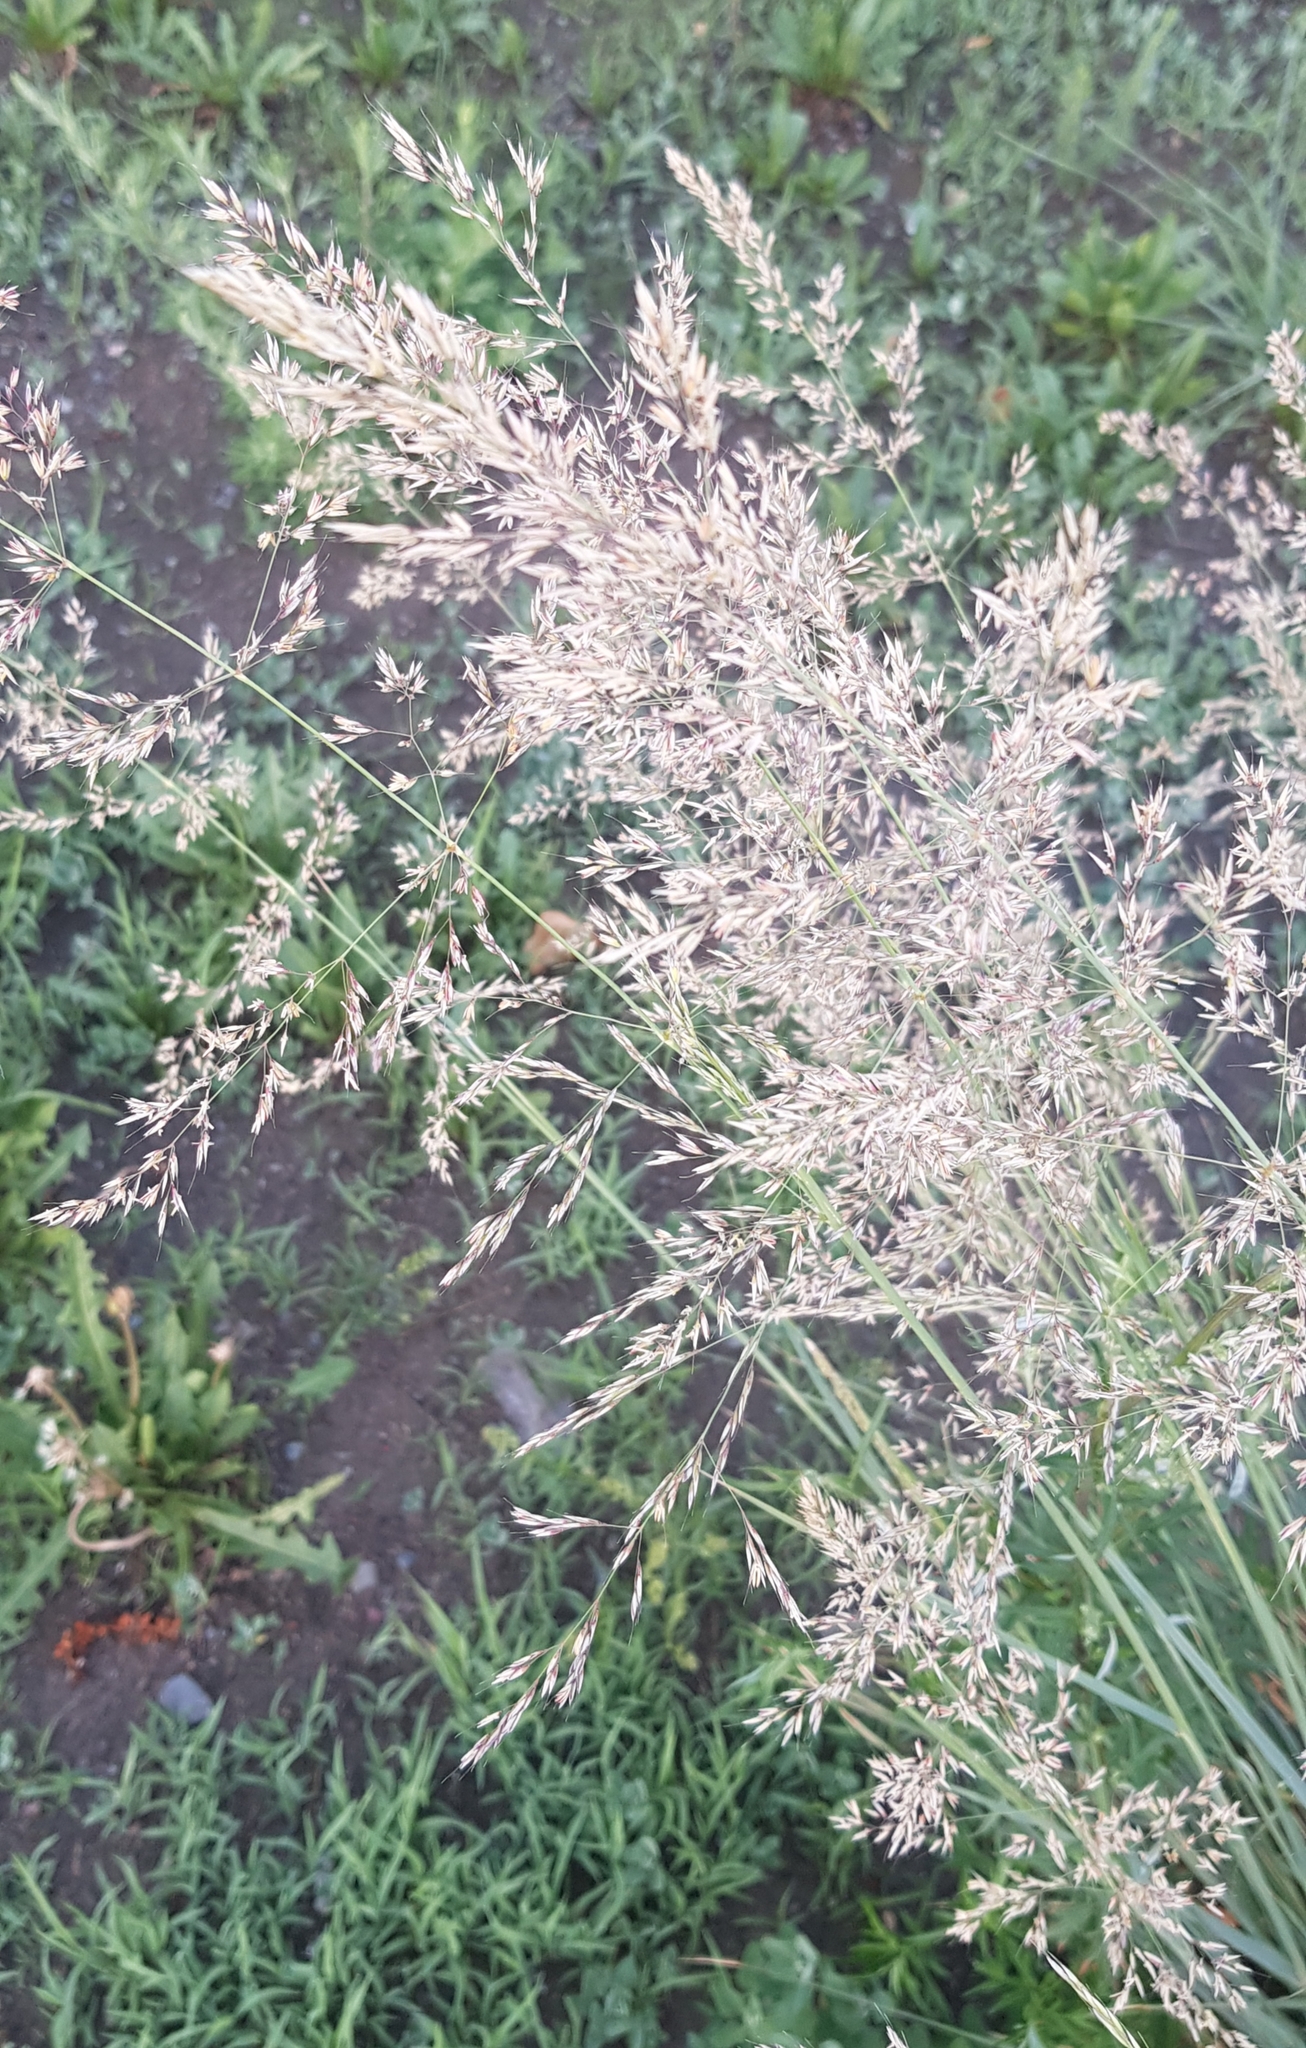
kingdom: Plantae
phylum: Tracheophyta
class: Liliopsida
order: Poales
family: Poaceae
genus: Neotrinia
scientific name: Neotrinia splendens
